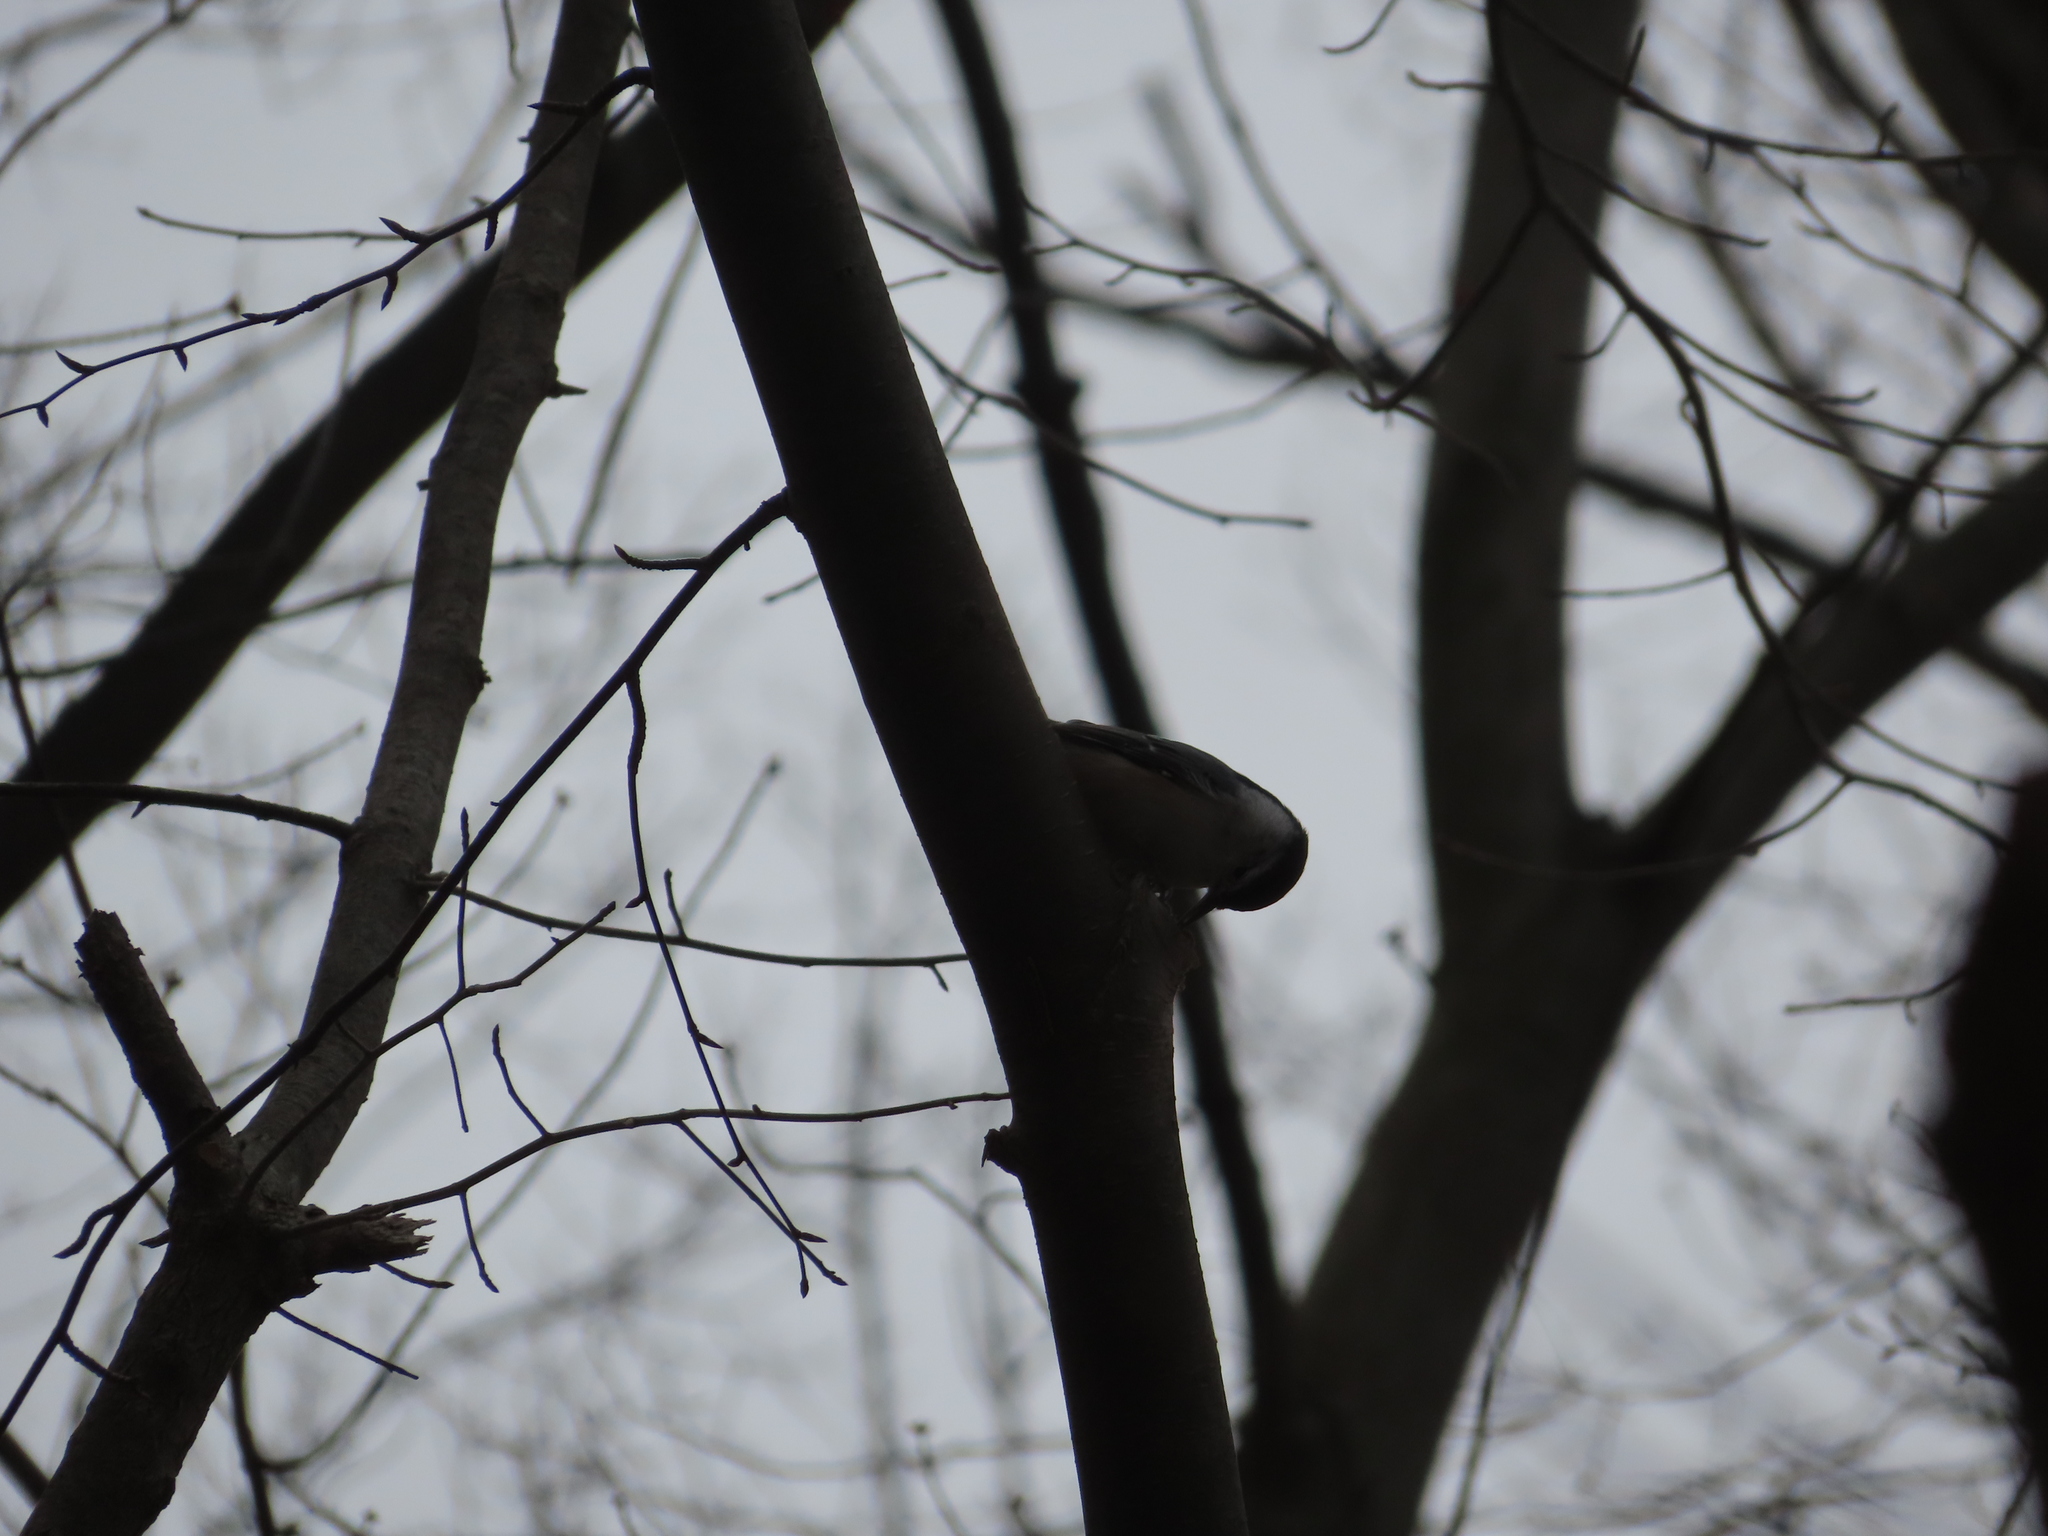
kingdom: Animalia
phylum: Chordata
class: Aves
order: Passeriformes
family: Sittidae
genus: Sitta
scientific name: Sitta carolinensis
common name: White-breasted nuthatch
